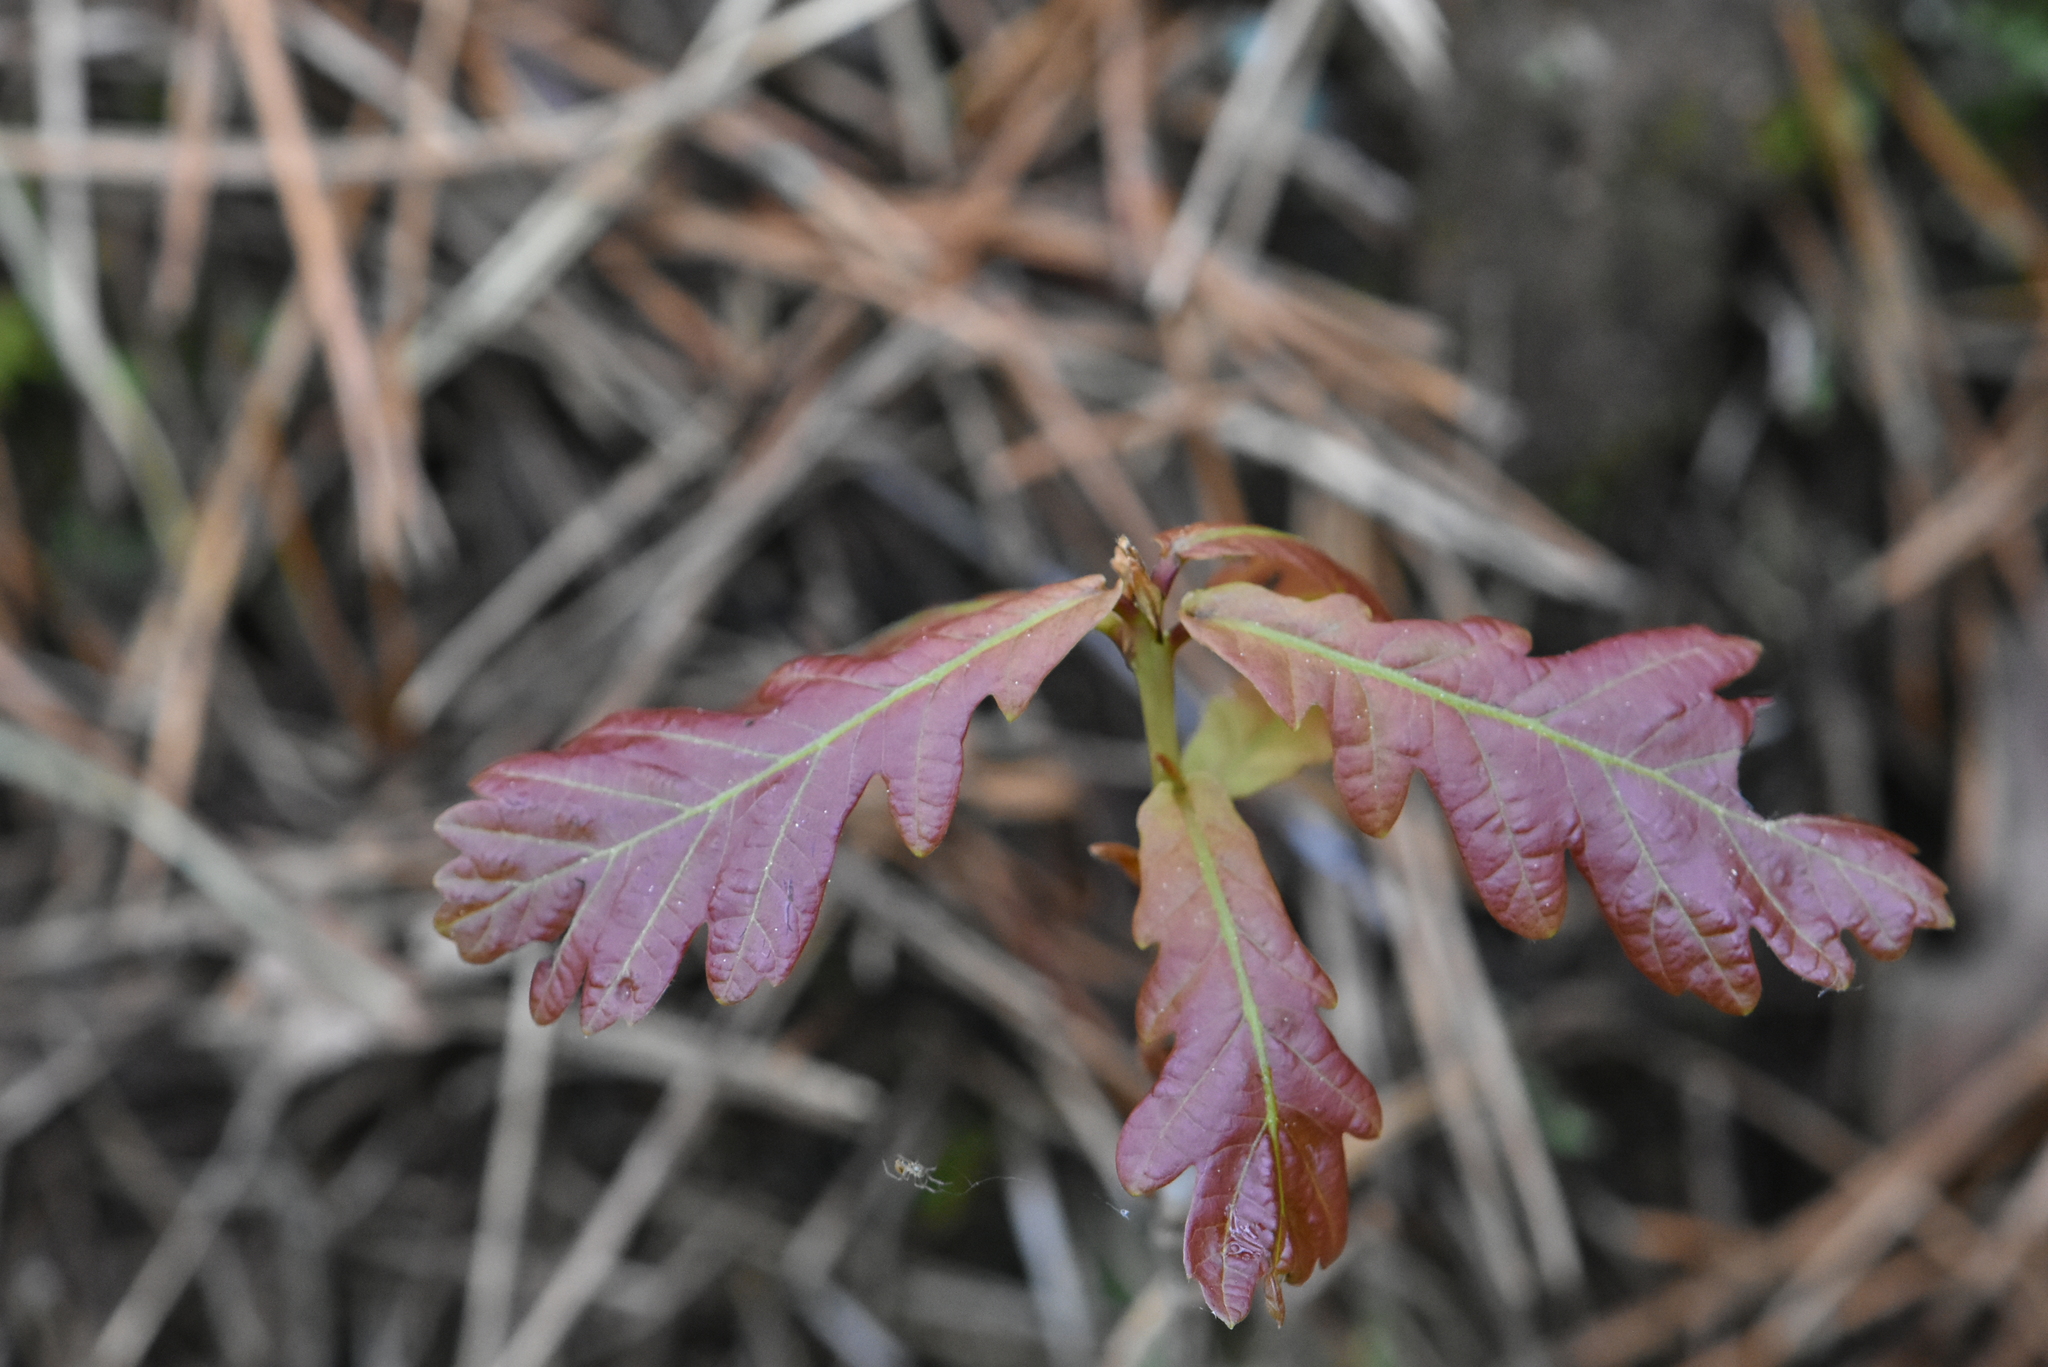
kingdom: Plantae
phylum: Tracheophyta
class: Magnoliopsida
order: Fagales
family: Fagaceae
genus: Quercus
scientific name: Quercus robur
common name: Pedunculate oak
